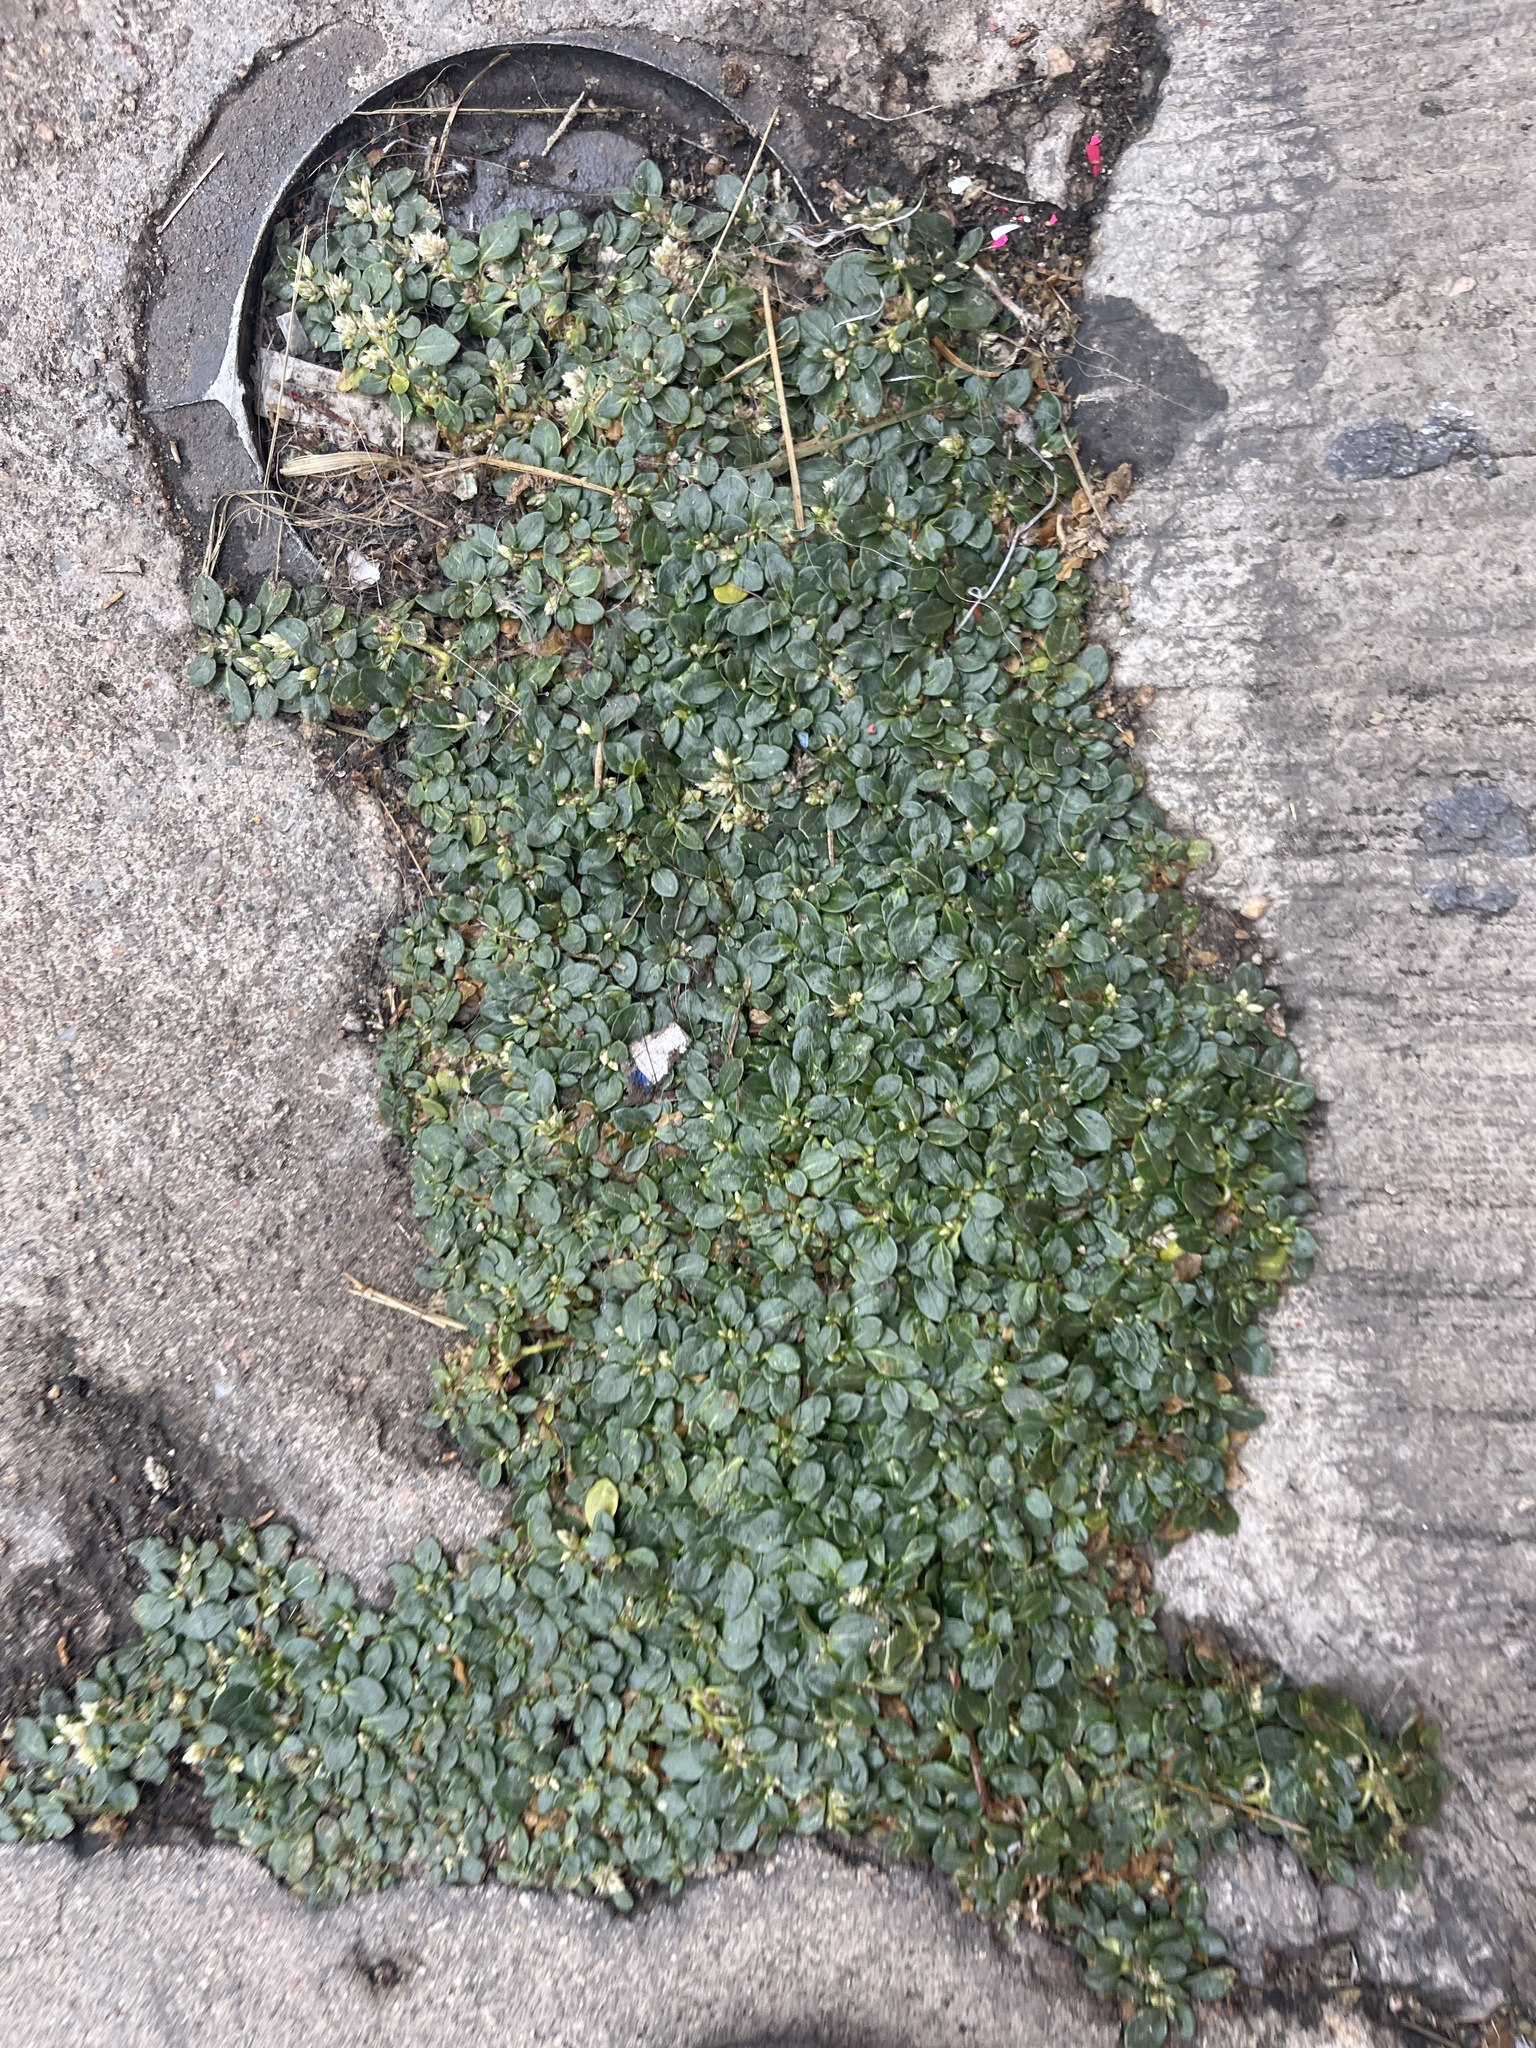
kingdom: Plantae
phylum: Tracheophyta
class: Magnoliopsida
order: Caryophyllales
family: Amaranthaceae
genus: Alternanthera
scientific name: Alternanthera caracasana
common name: Washerwoman
